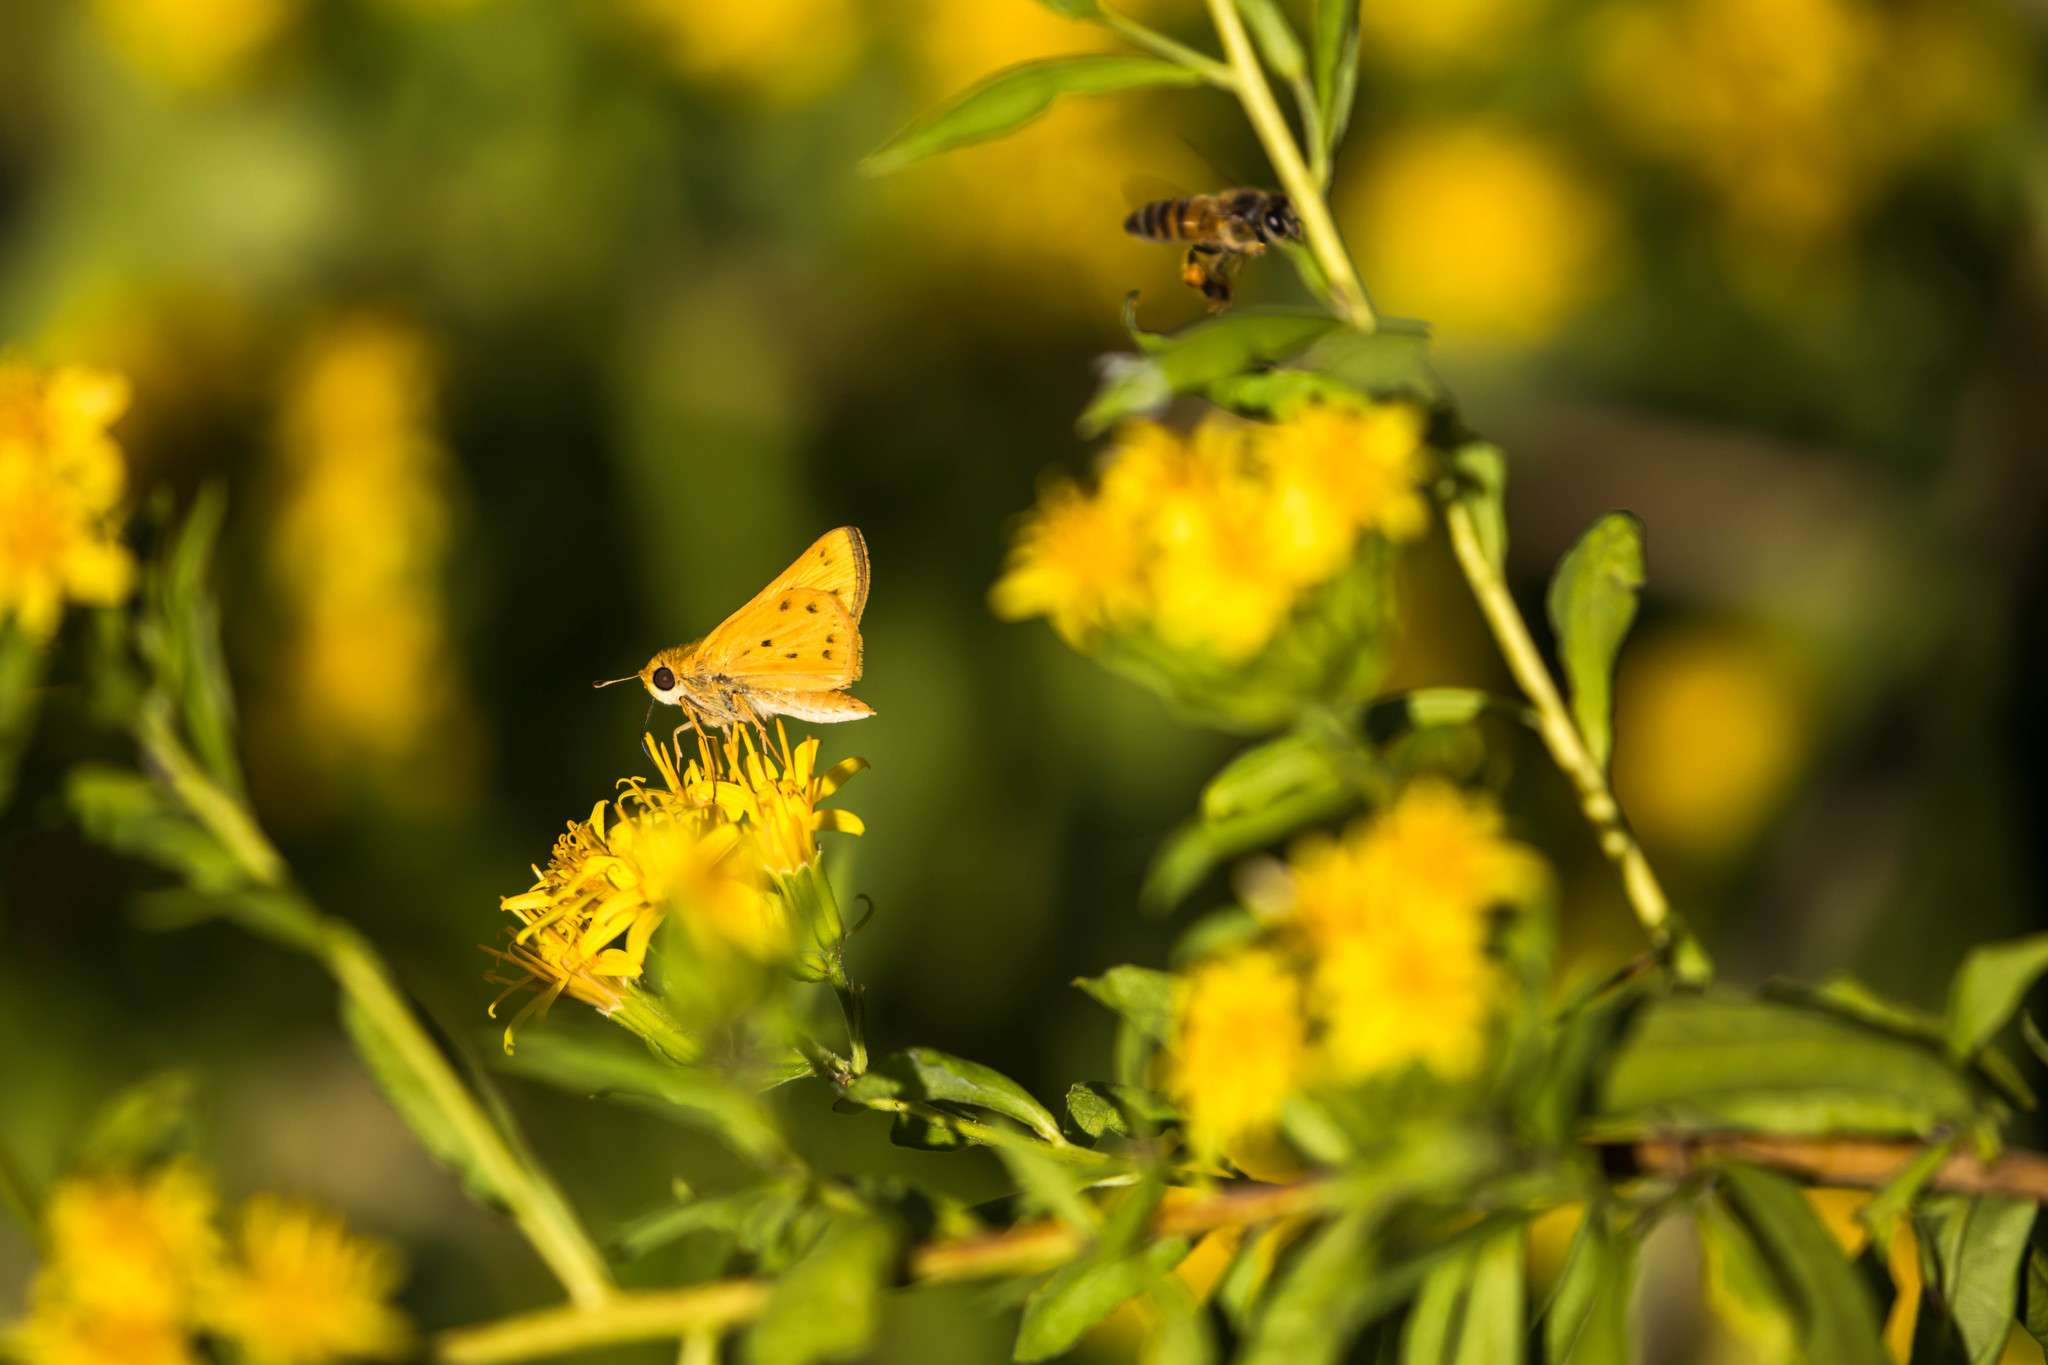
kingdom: Animalia
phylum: Arthropoda
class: Insecta
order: Lepidoptera
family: Hesperiidae
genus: Hylephila
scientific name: Hylephila phyleus
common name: Fiery skipper
